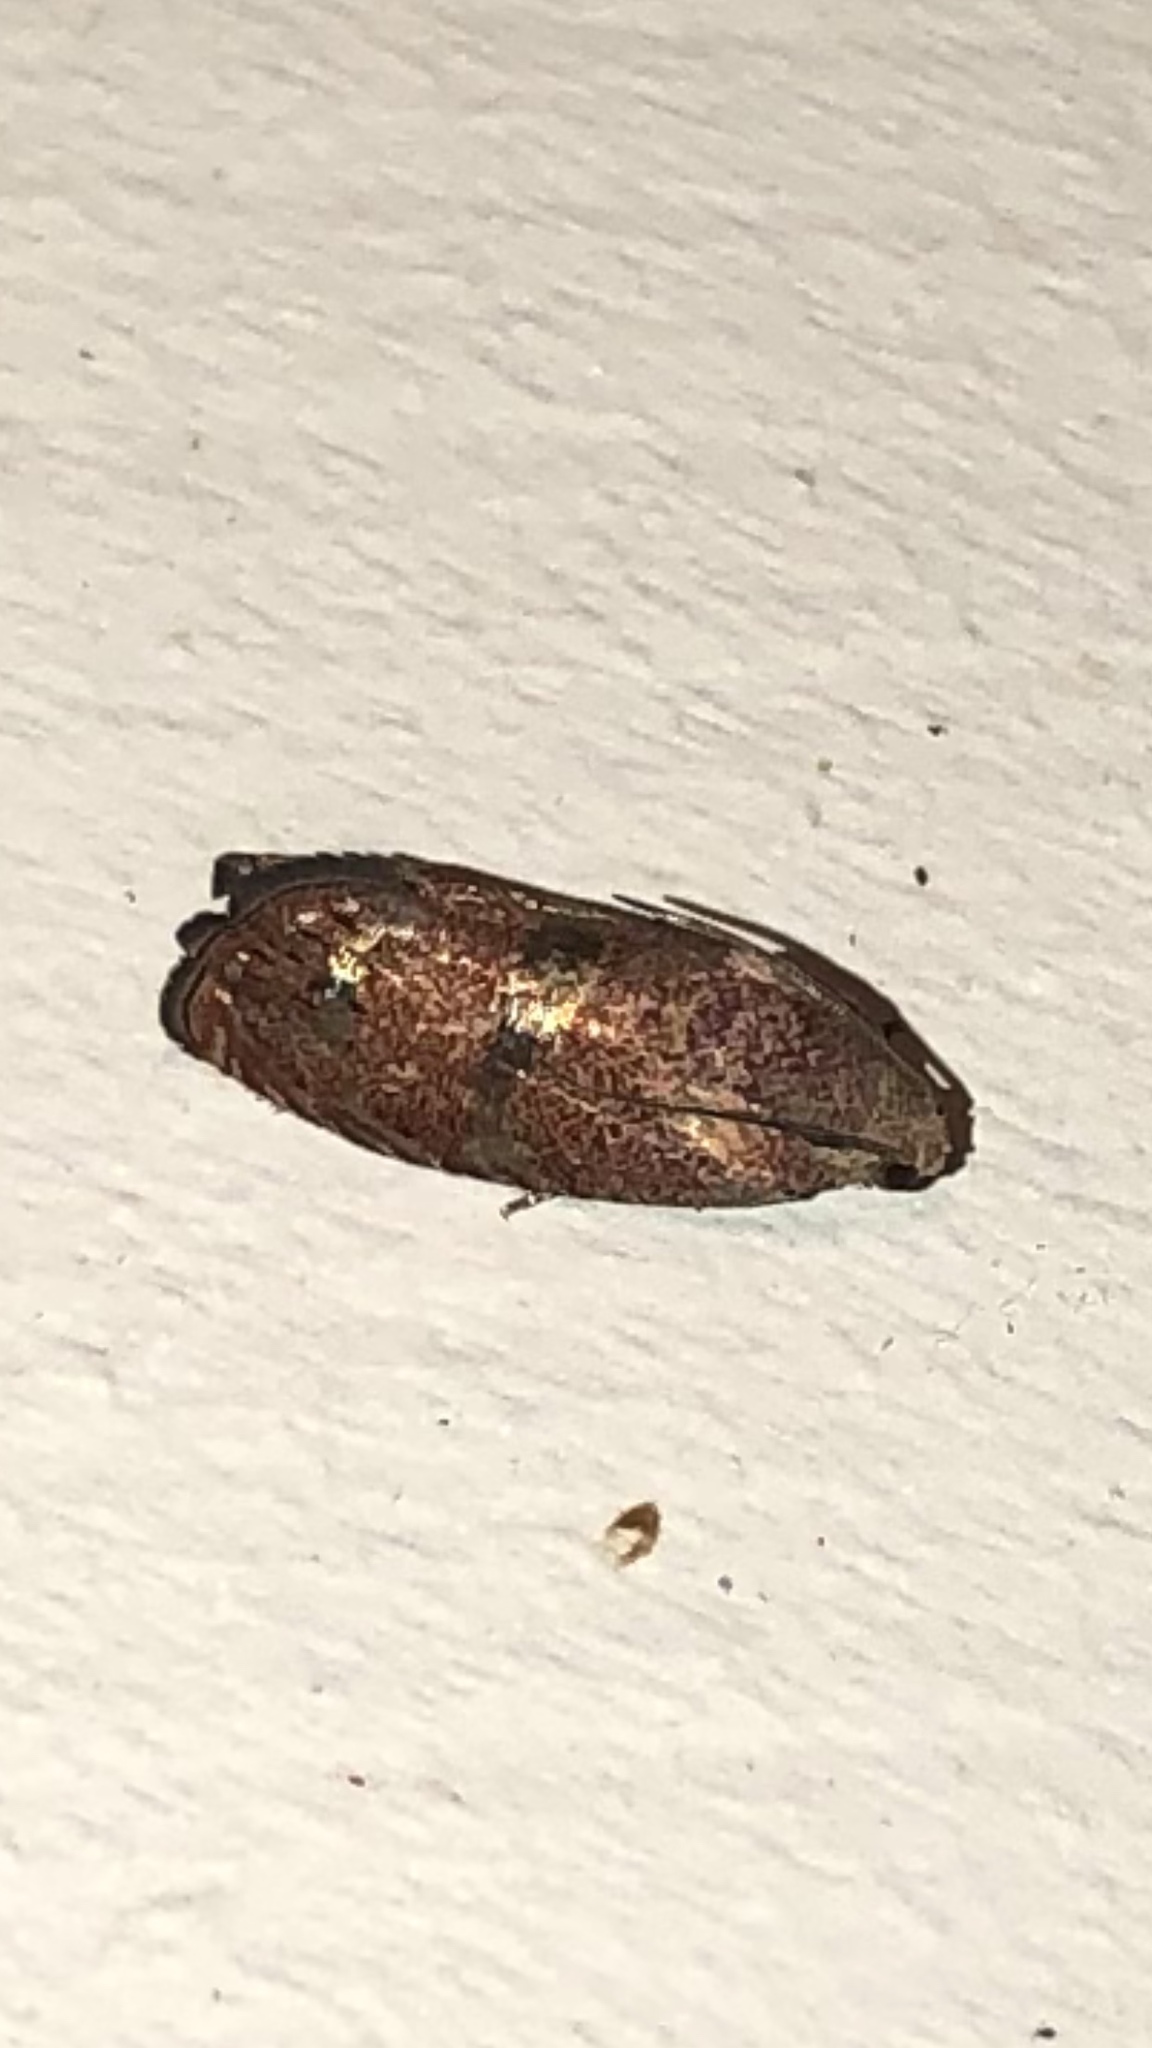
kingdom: Animalia
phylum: Arthropoda
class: Insecta
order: Lepidoptera
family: Tortricidae
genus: Cydia
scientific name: Cydia latiferreana
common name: Filbertworm moth
